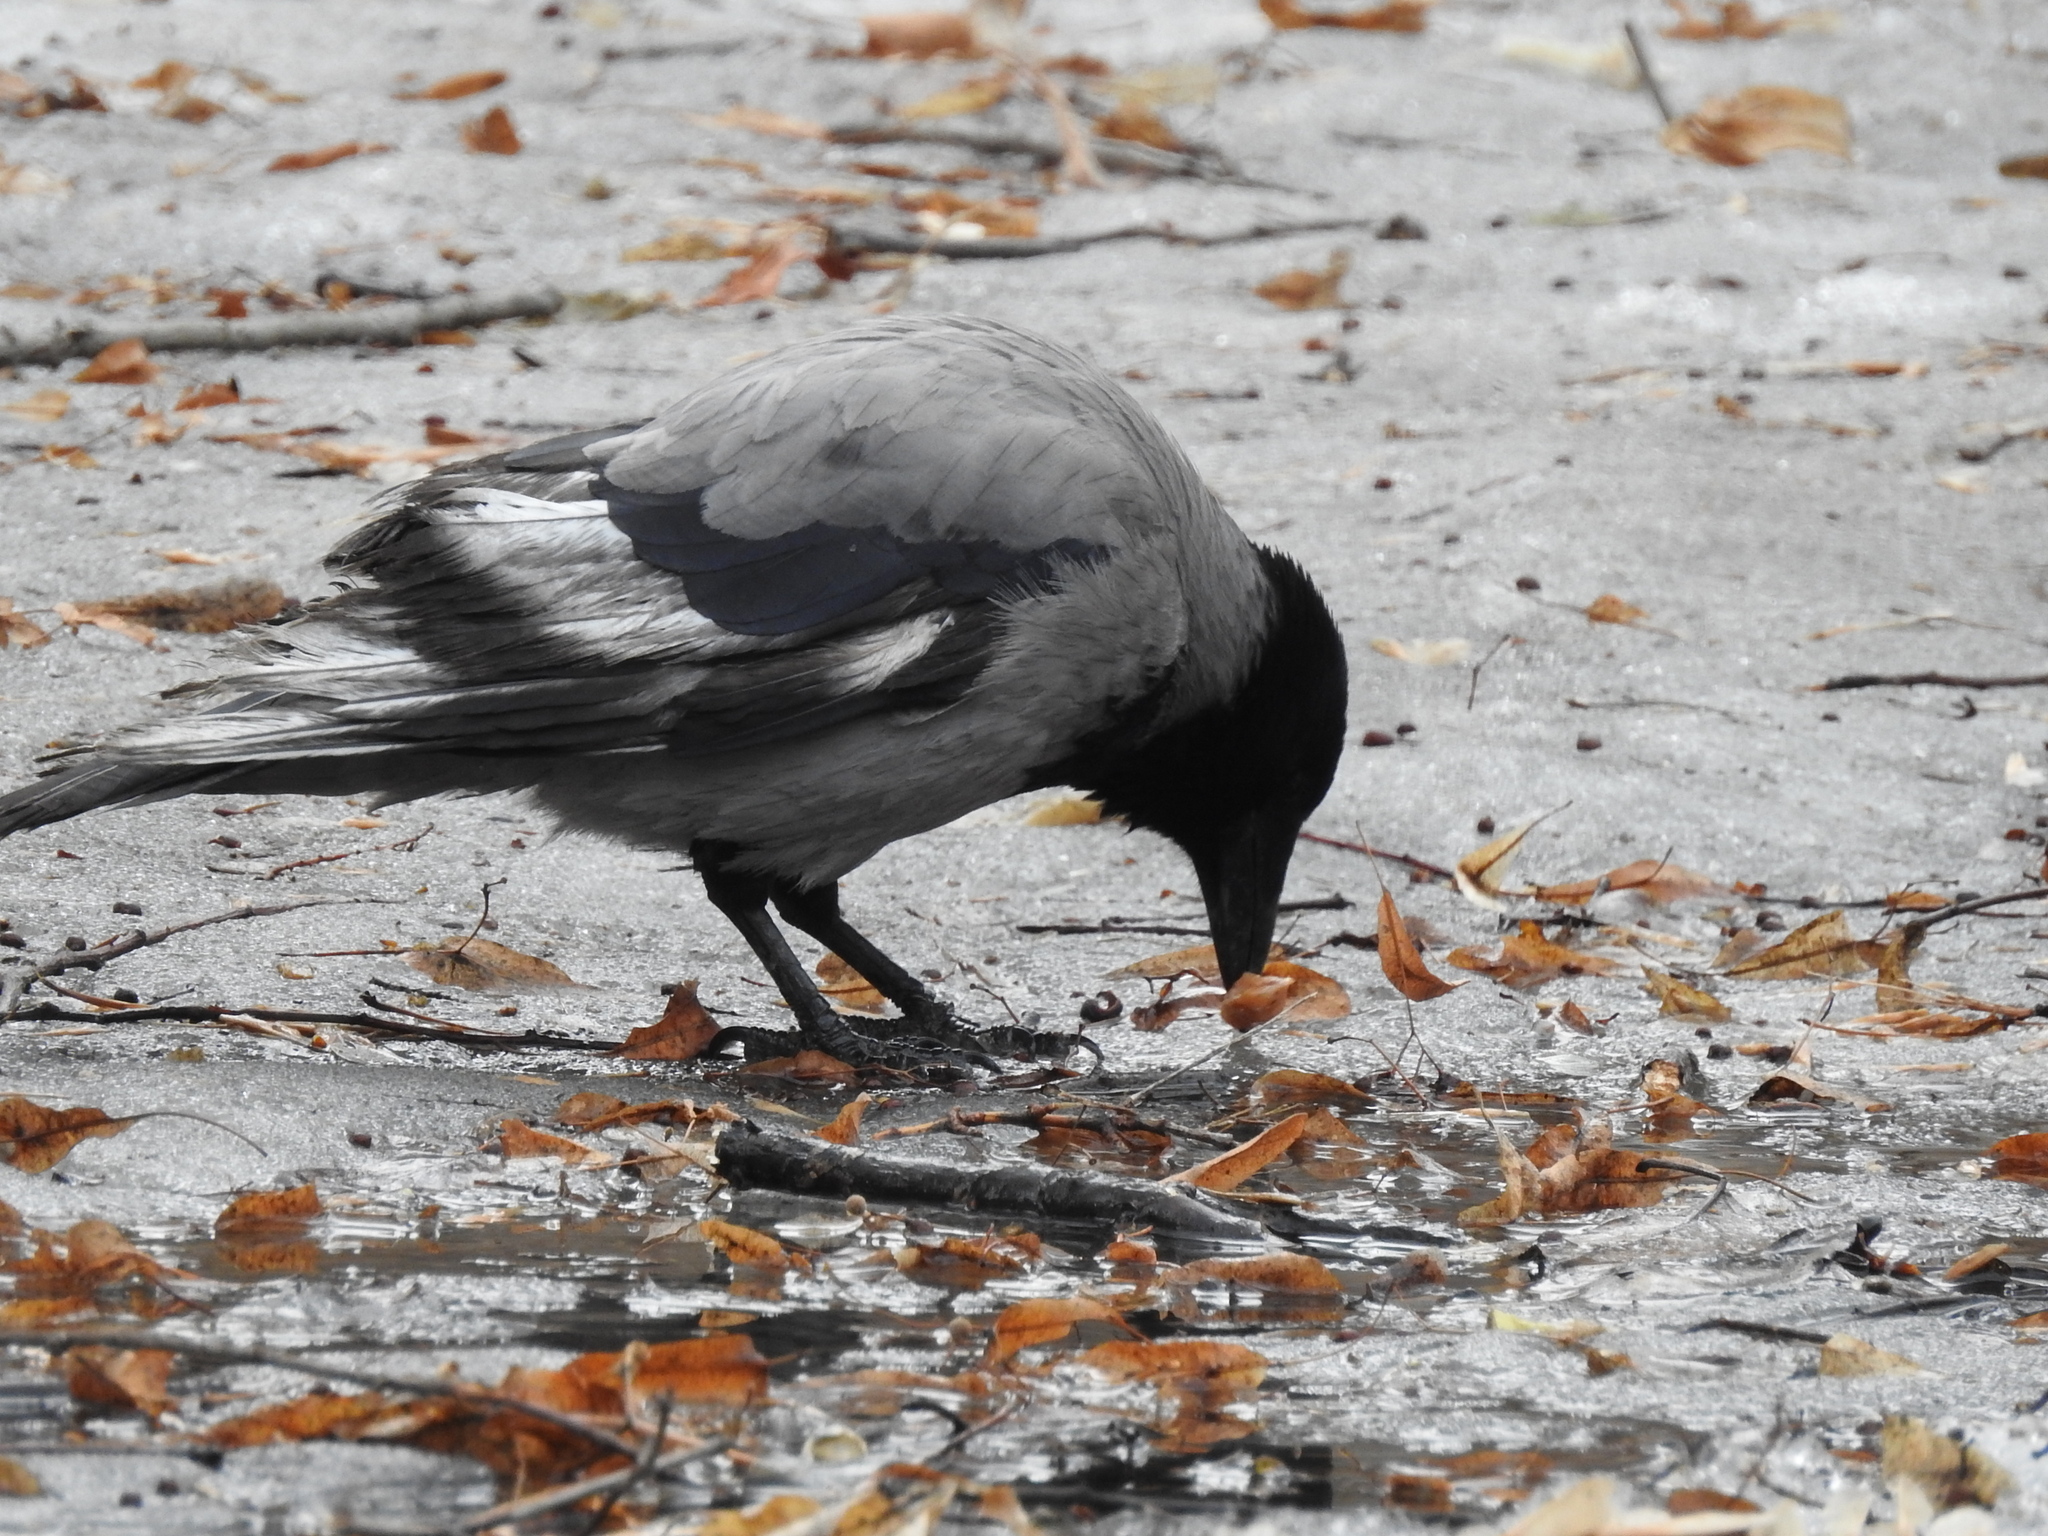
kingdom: Animalia
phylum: Chordata
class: Aves
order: Passeriformes
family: Corvidae
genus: Corvus
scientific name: Corvus cornix
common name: Hooded crow
